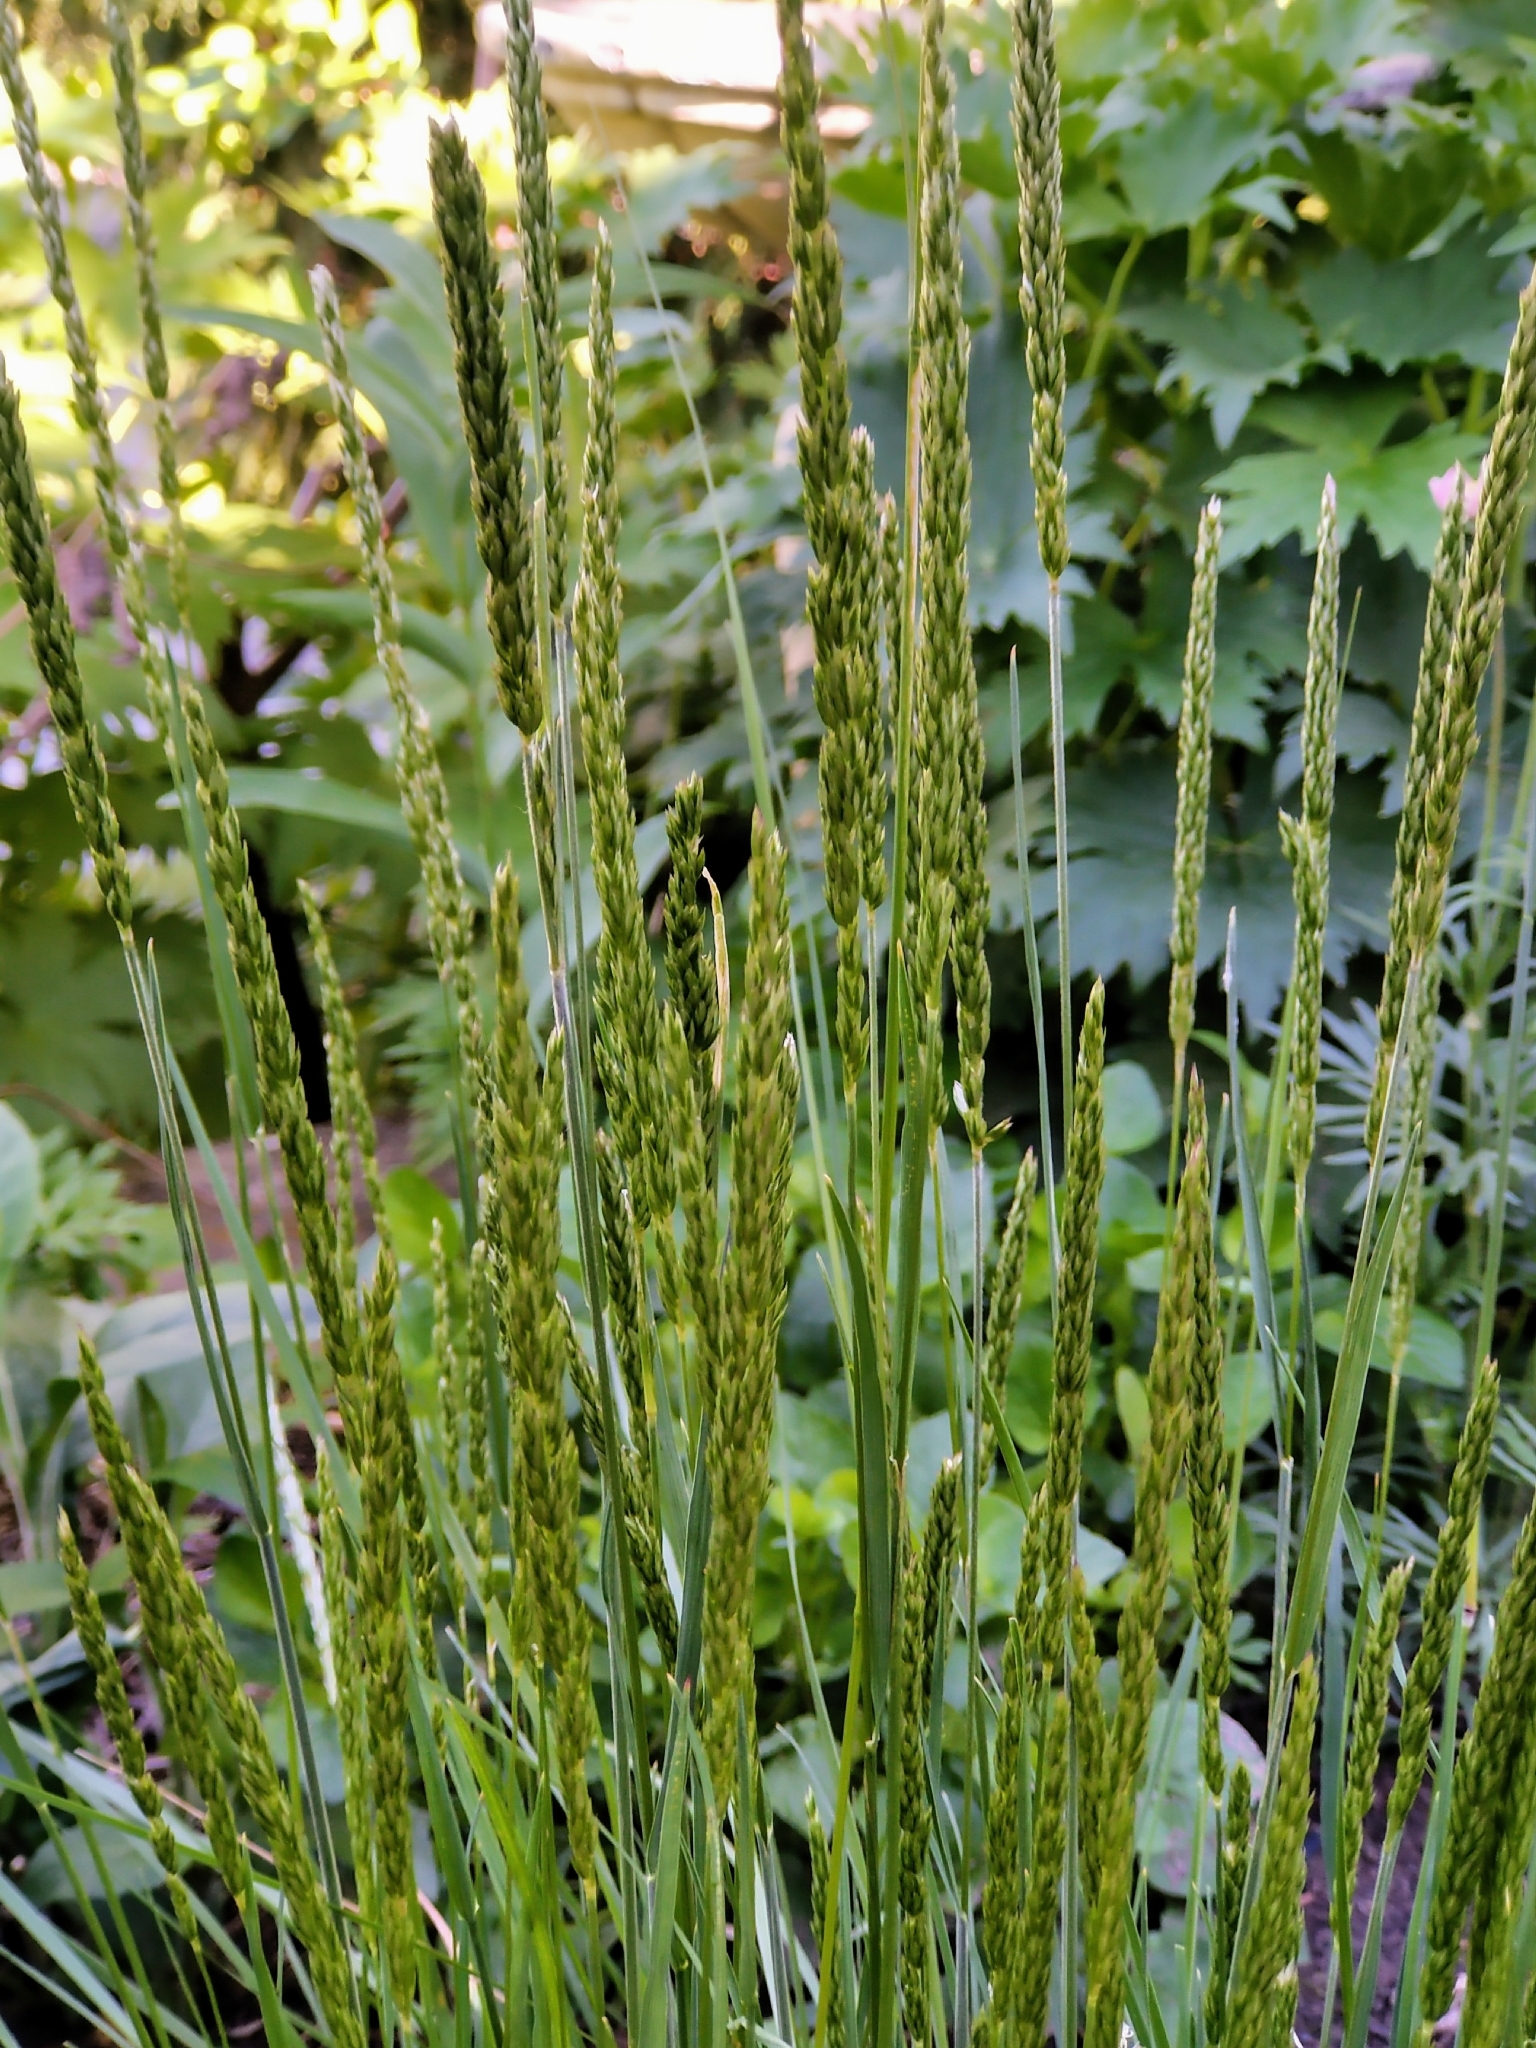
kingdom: Plantae
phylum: Tracheophyta
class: Liliopsida
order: Poales
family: Poaceae
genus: Koeleria
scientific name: Koeleria macrantha
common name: Crested hair-grass
